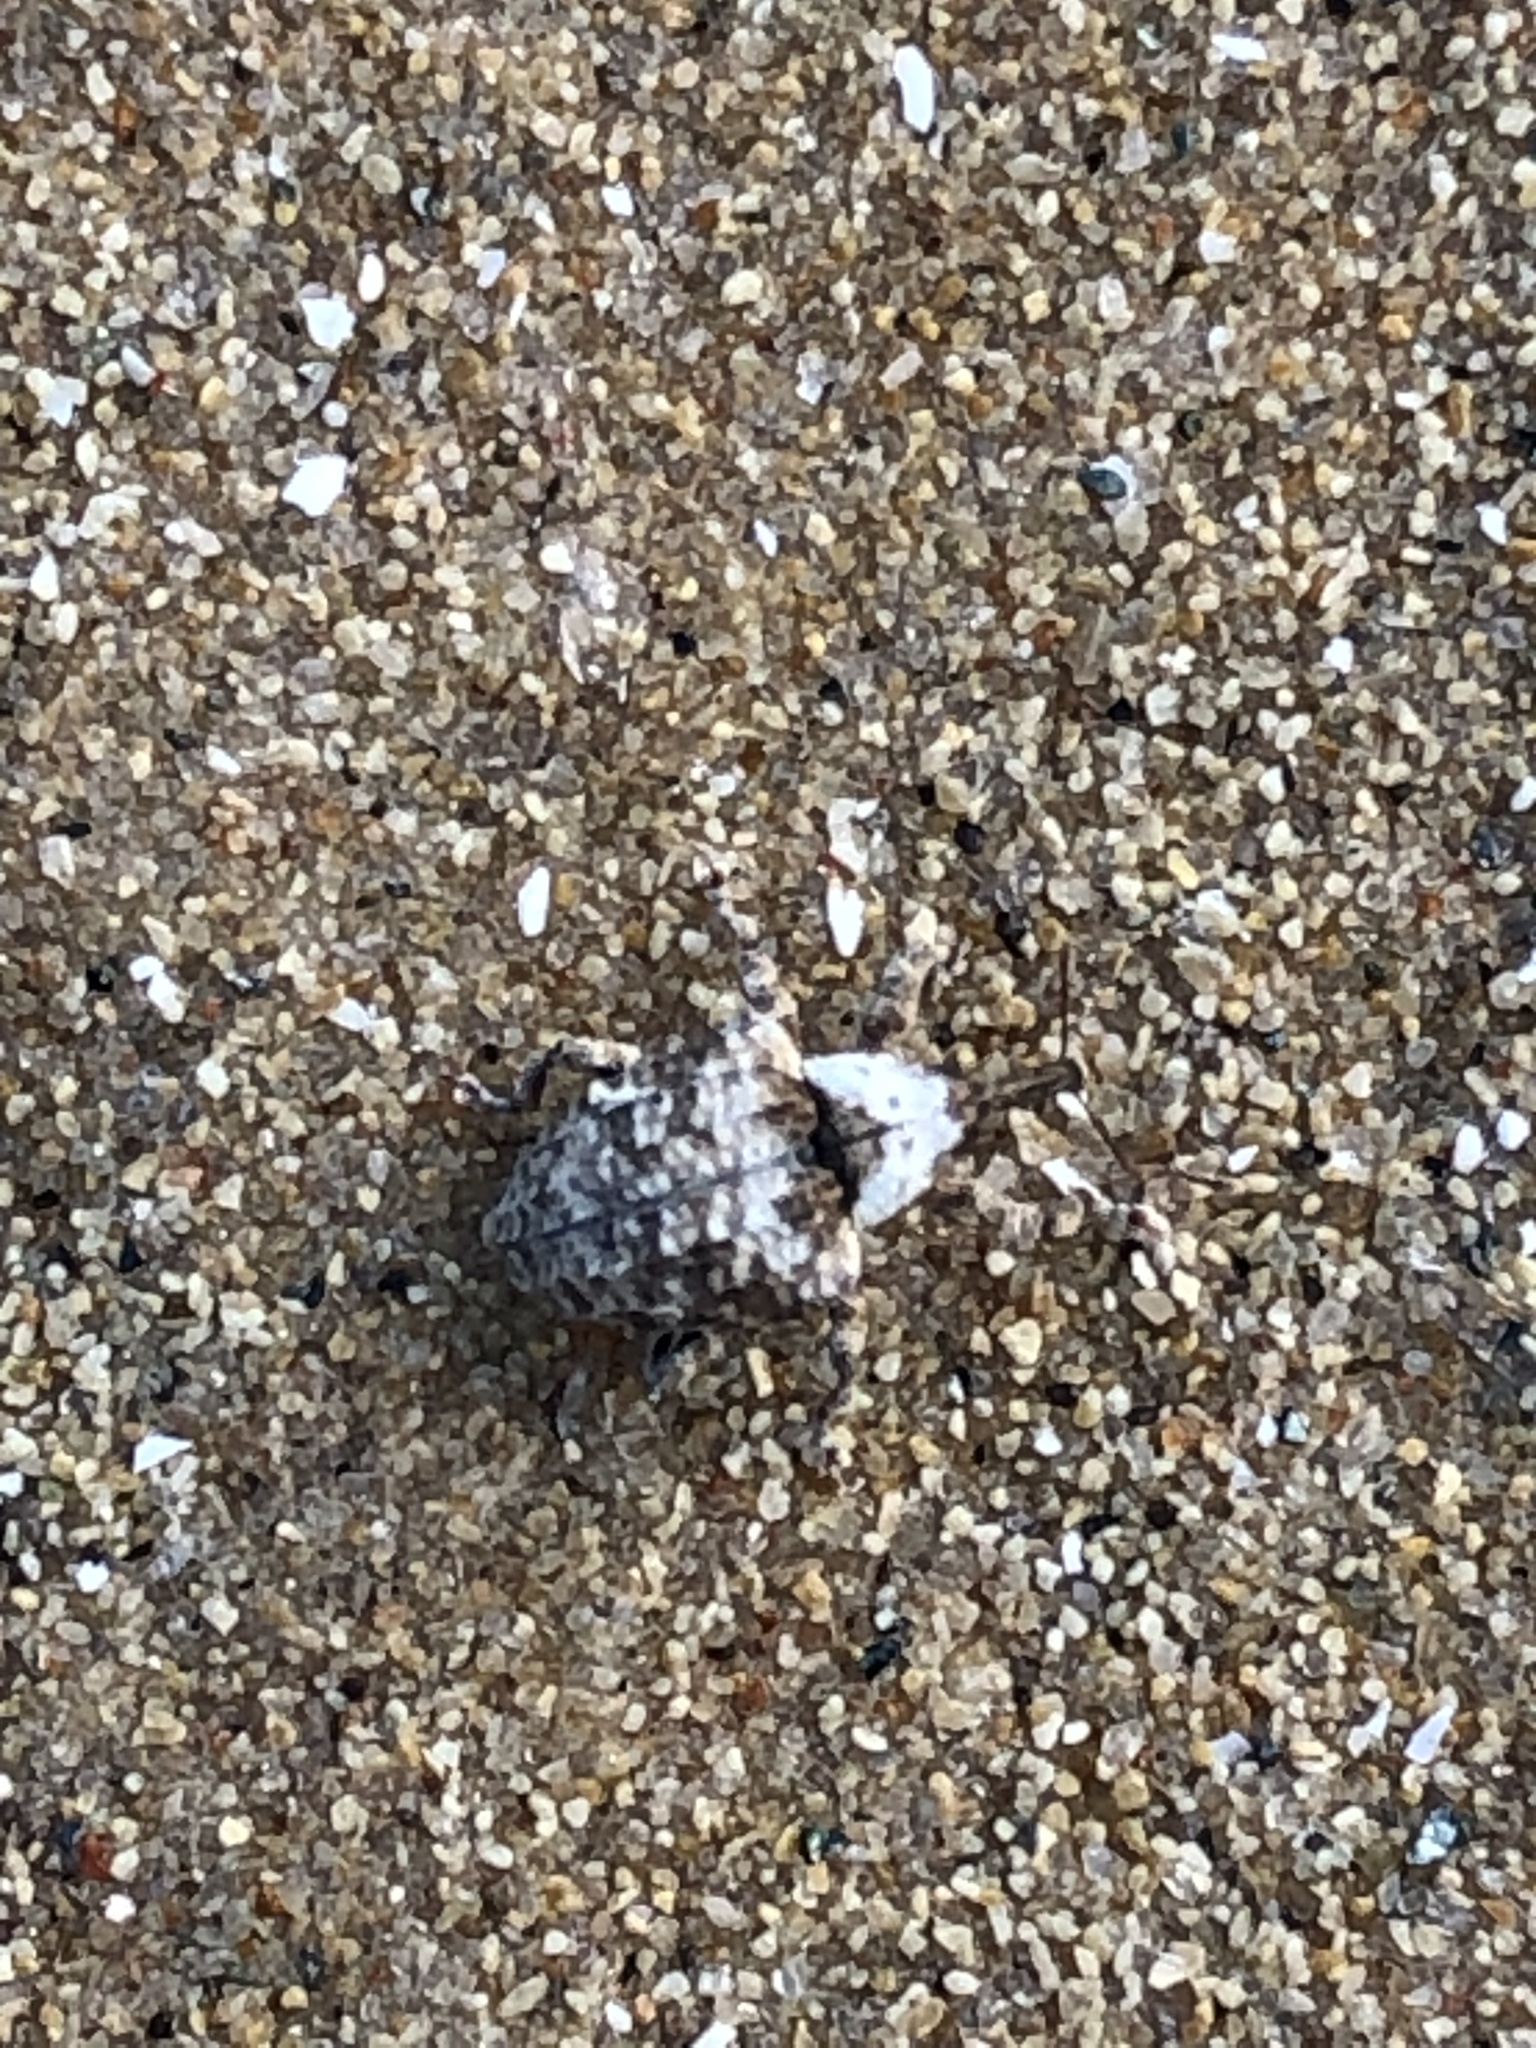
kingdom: Animalia
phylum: Arthropoda
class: Insecta
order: Coleoptera
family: Curculionidae
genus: Conotrachelus
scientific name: Conotrachelus crataegi
